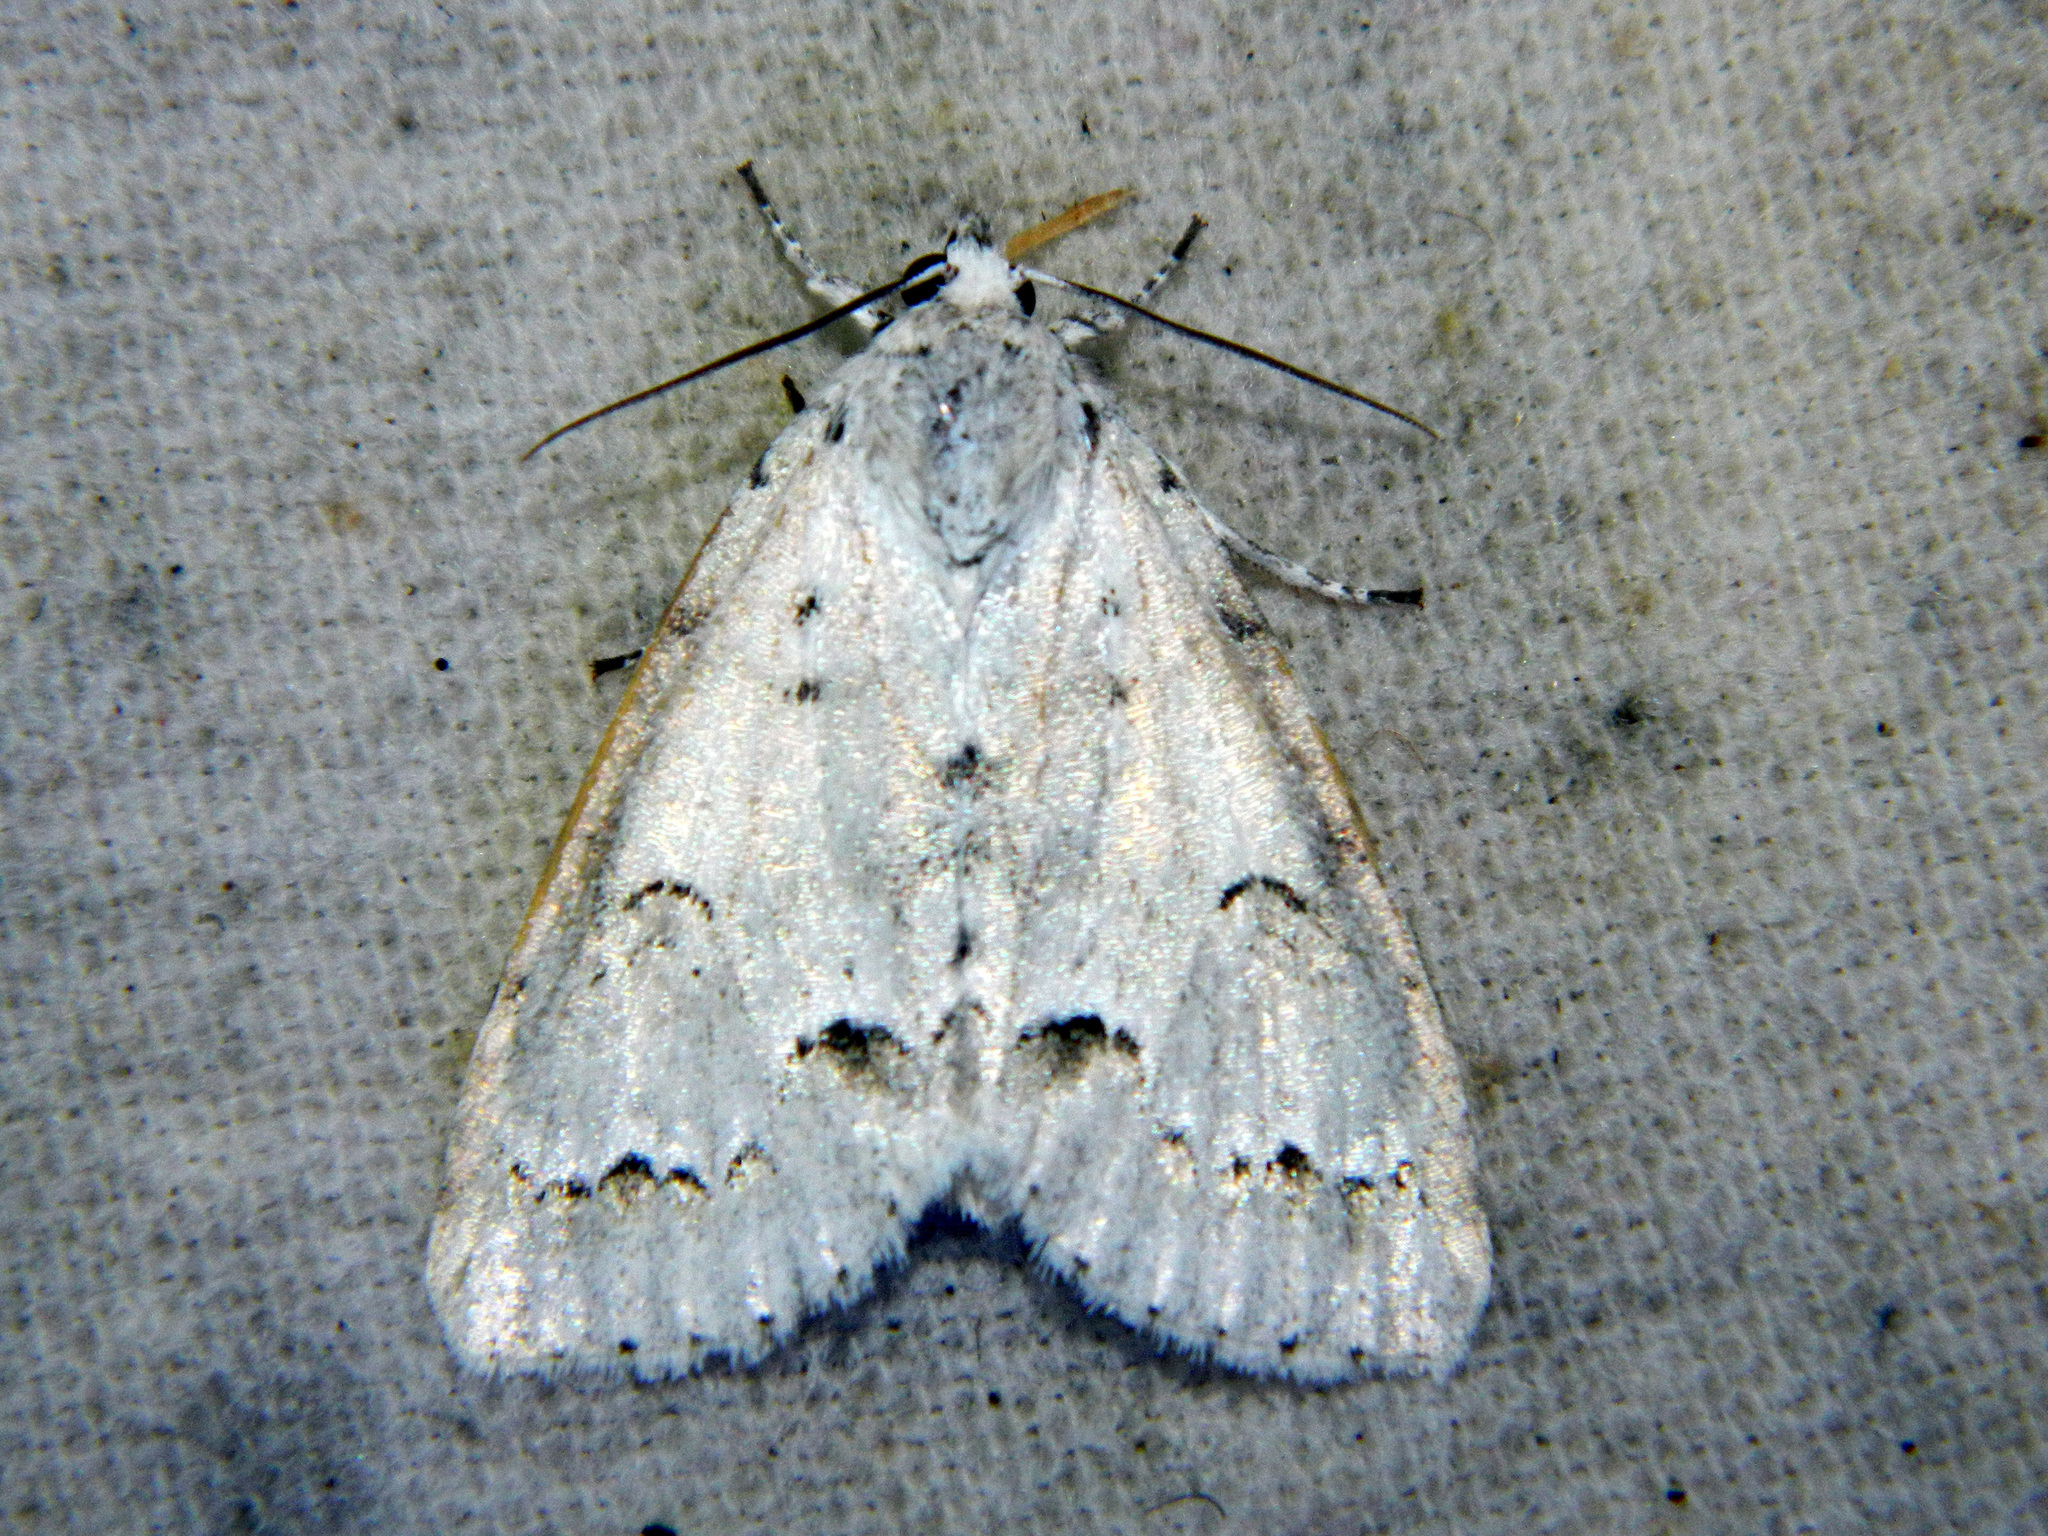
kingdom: Animalia
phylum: Arthropoda
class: Insecta
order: Lepidoptera
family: Noctuidae
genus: Acronicta
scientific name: Acronicta innotata
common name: Unmarked dagger
